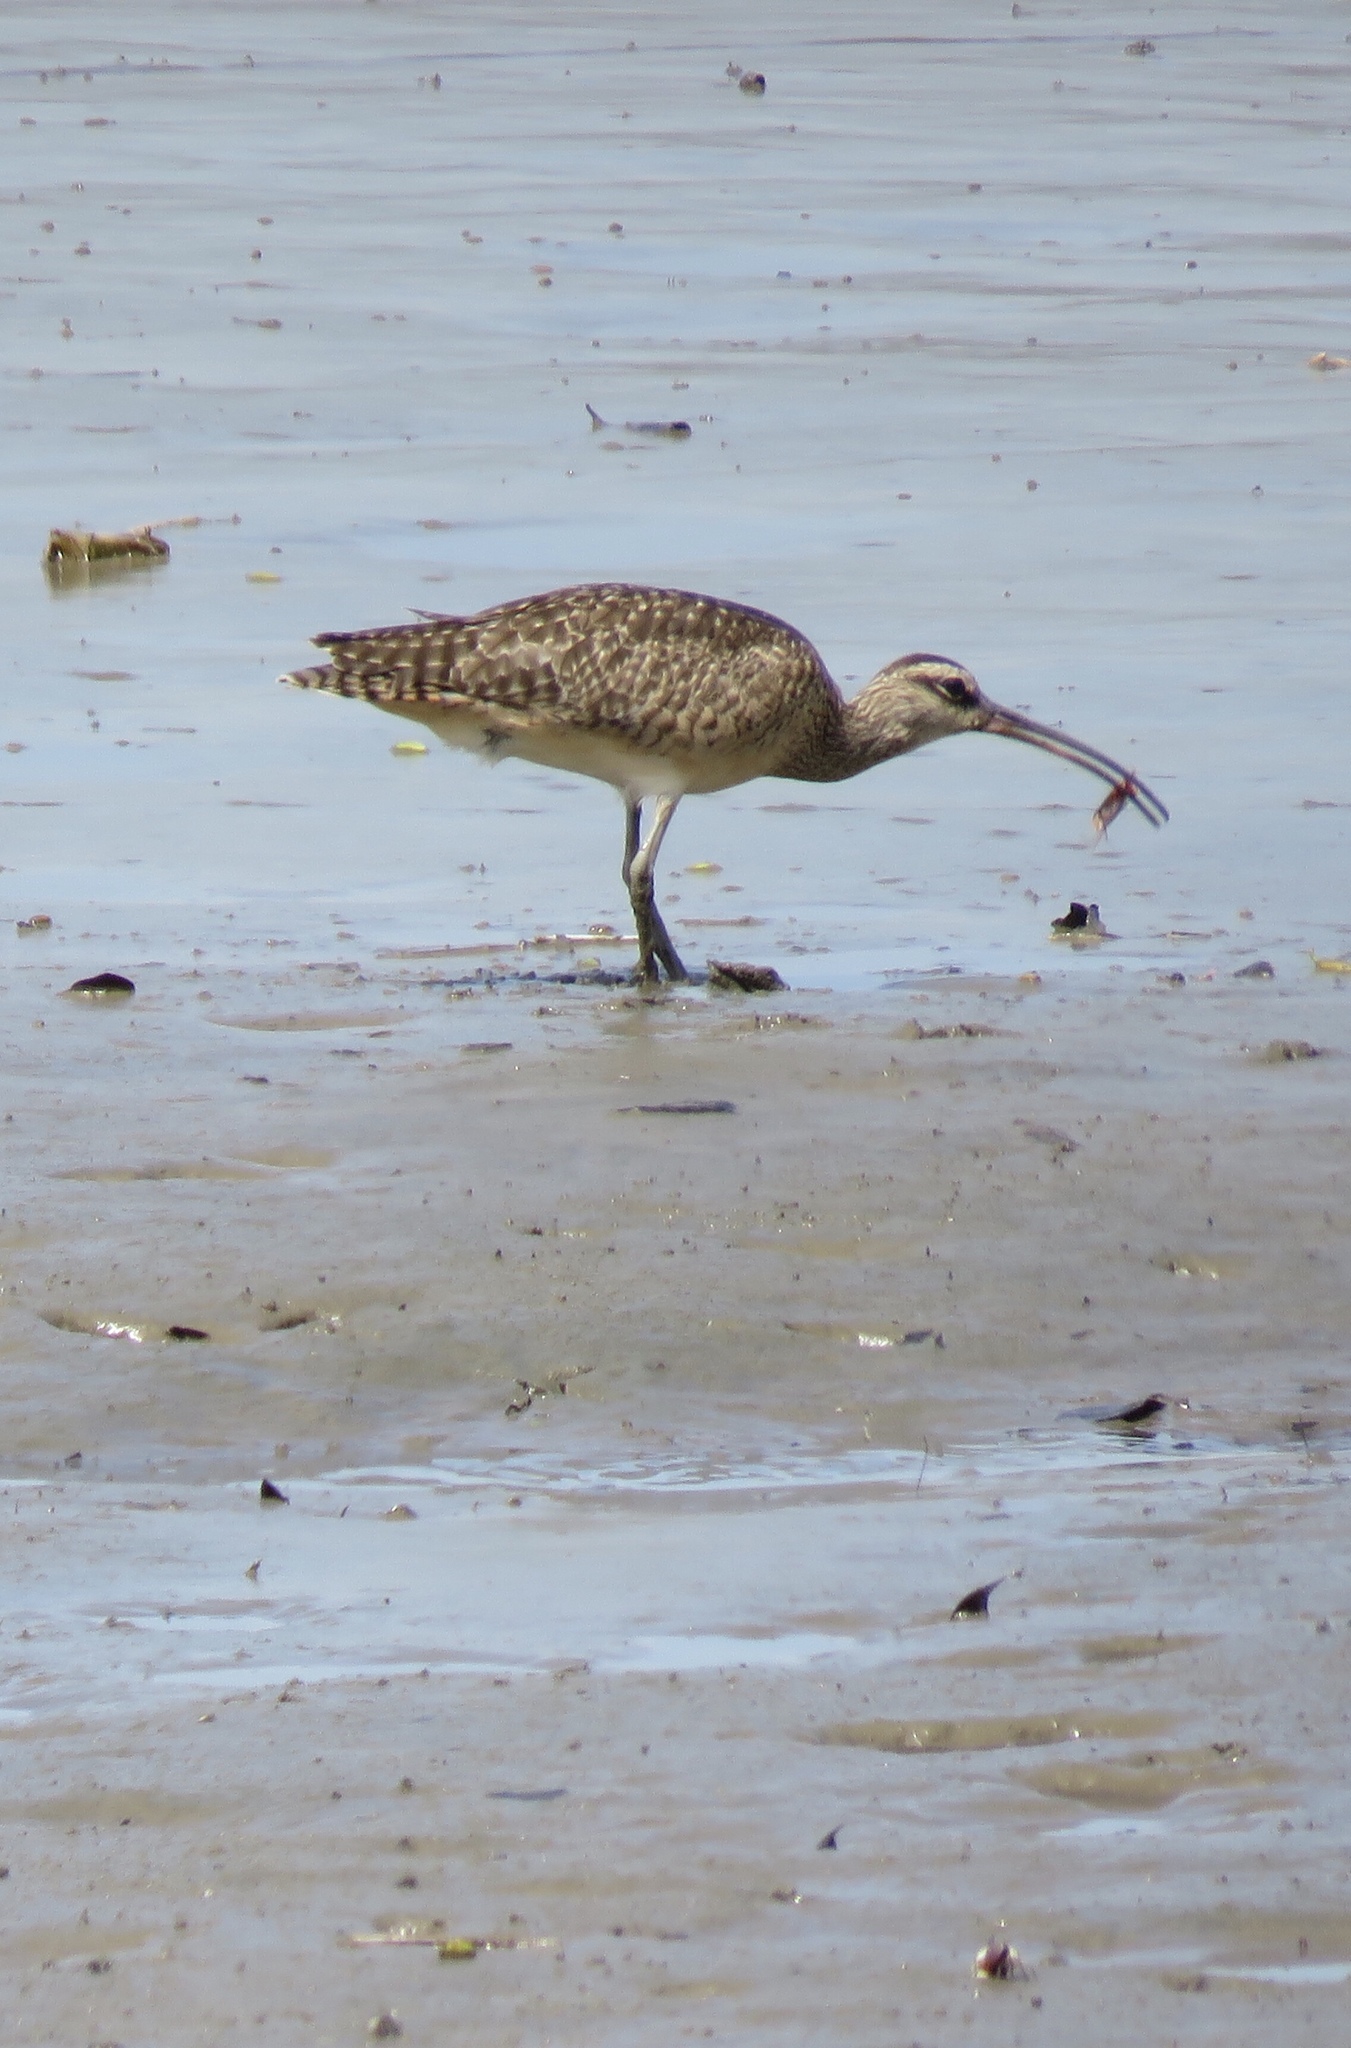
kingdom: Animalia
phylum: Chordata
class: Aves
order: Charadriiformes
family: Scolopacidae
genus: Numenius
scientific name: Numenius phaeopus
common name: Whimbrel
